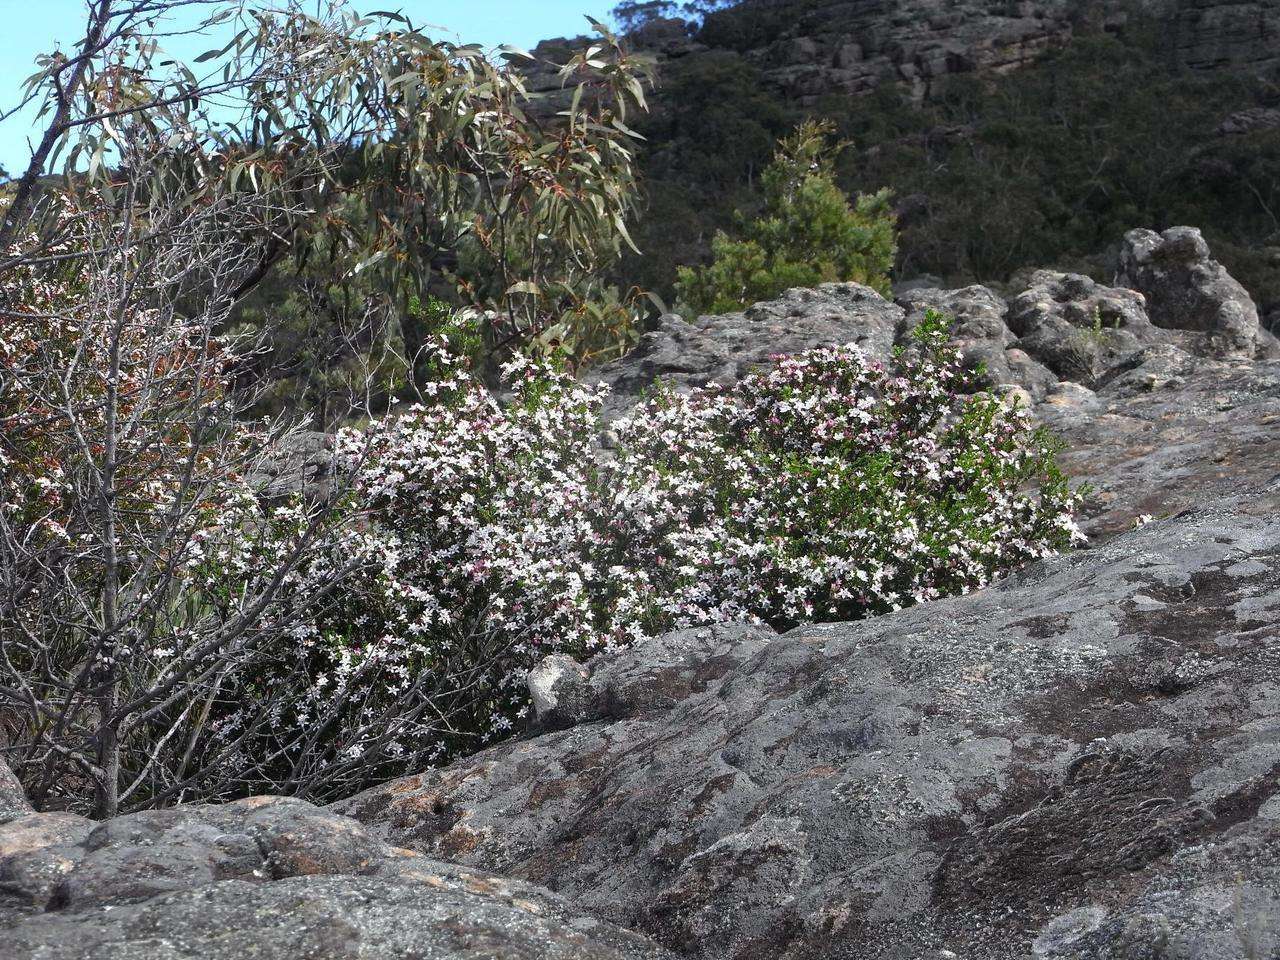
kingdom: Plantae
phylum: Tracheophyta
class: Magnoliopsida
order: Sapindales
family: Rutaceae
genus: Philotheca
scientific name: Philotheca angustifolia
